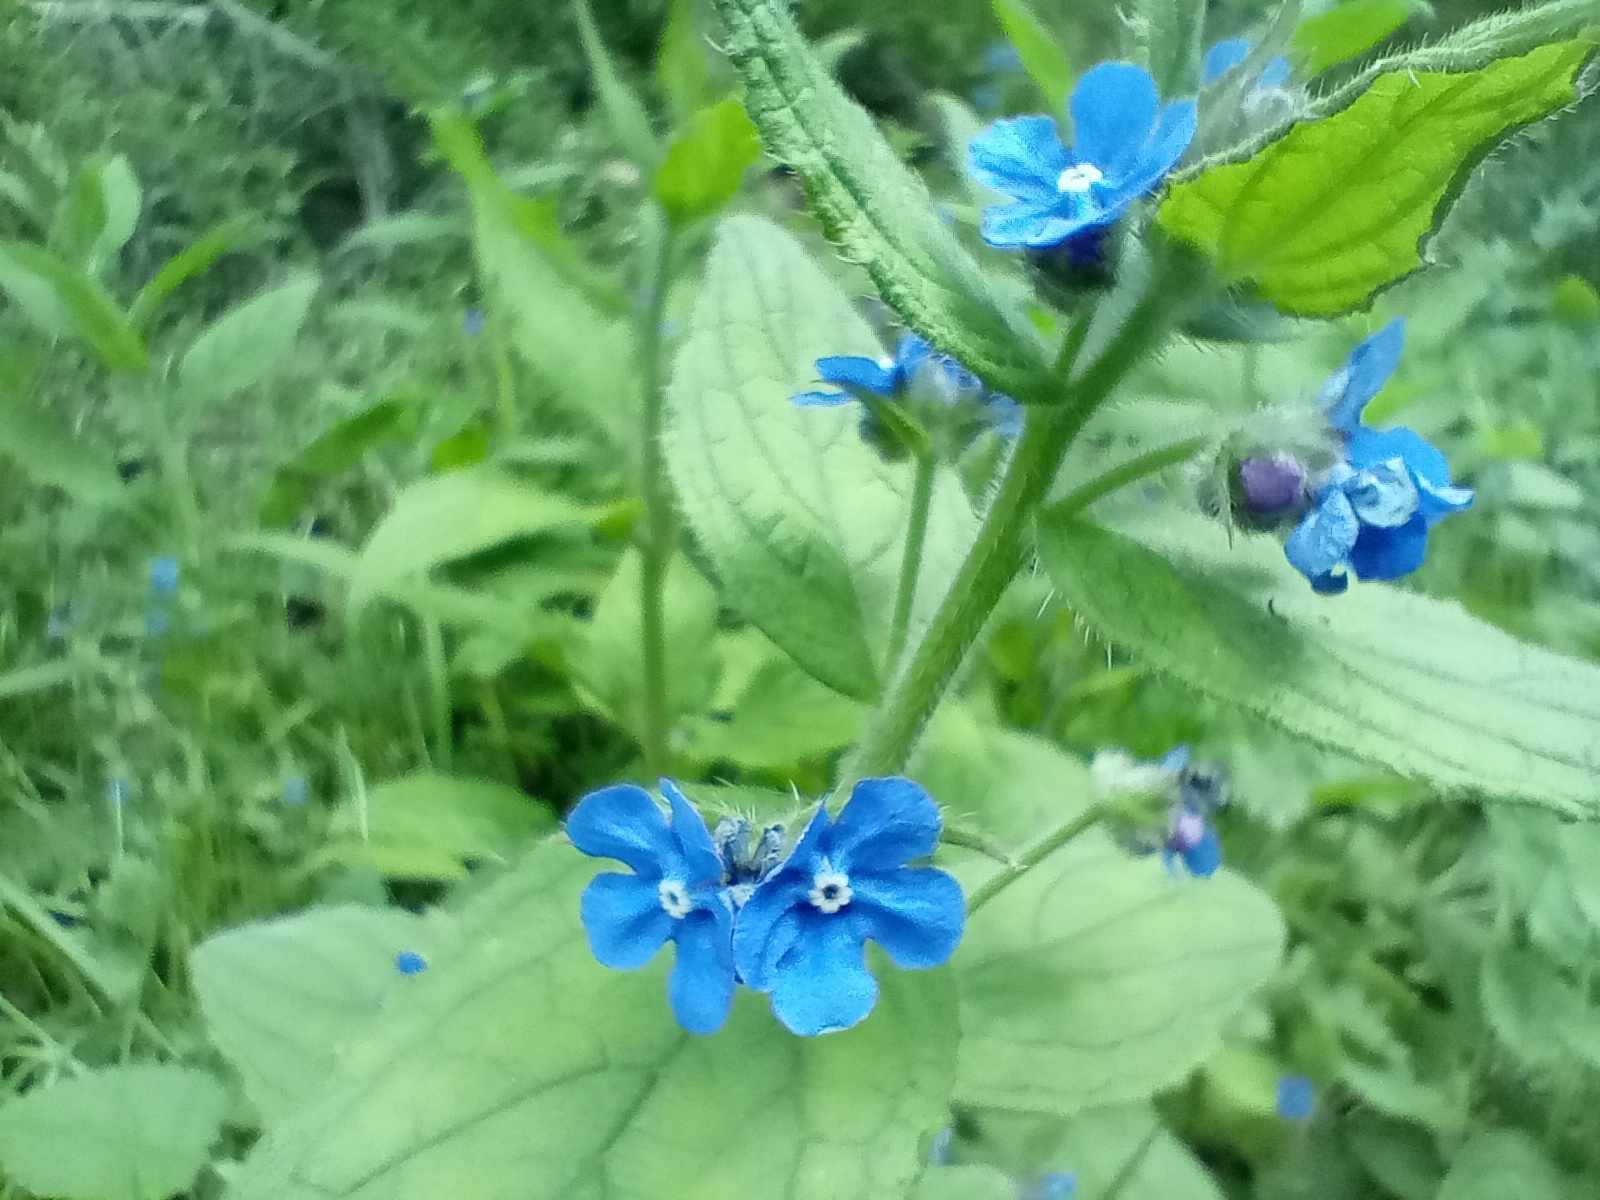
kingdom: Plantae
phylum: Tracheophyta
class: Magnoliopsida
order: Boraginales
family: Boraginaceae
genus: Pentaglottis
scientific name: Pentaglottis sempervirens
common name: Green alkanet
